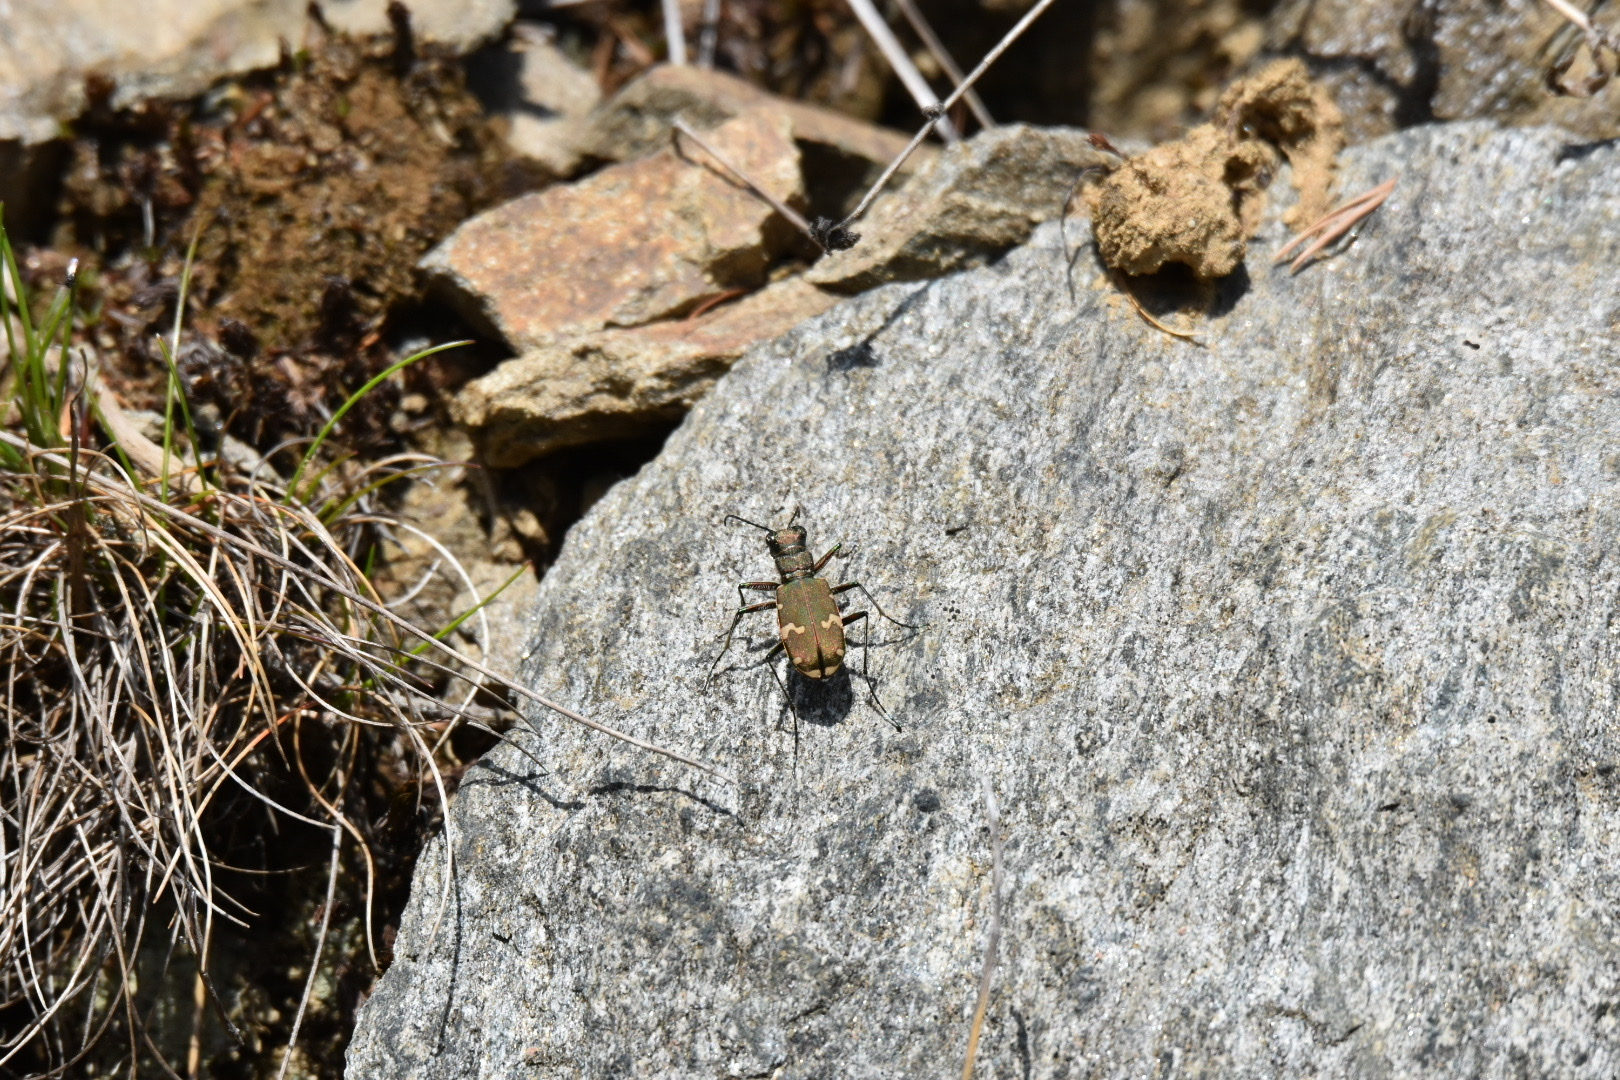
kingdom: Animalia
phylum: Arthropoda
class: Insecta
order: Coleoptera
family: Carabidae
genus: Cicindela
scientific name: Cicindela sylvicola
